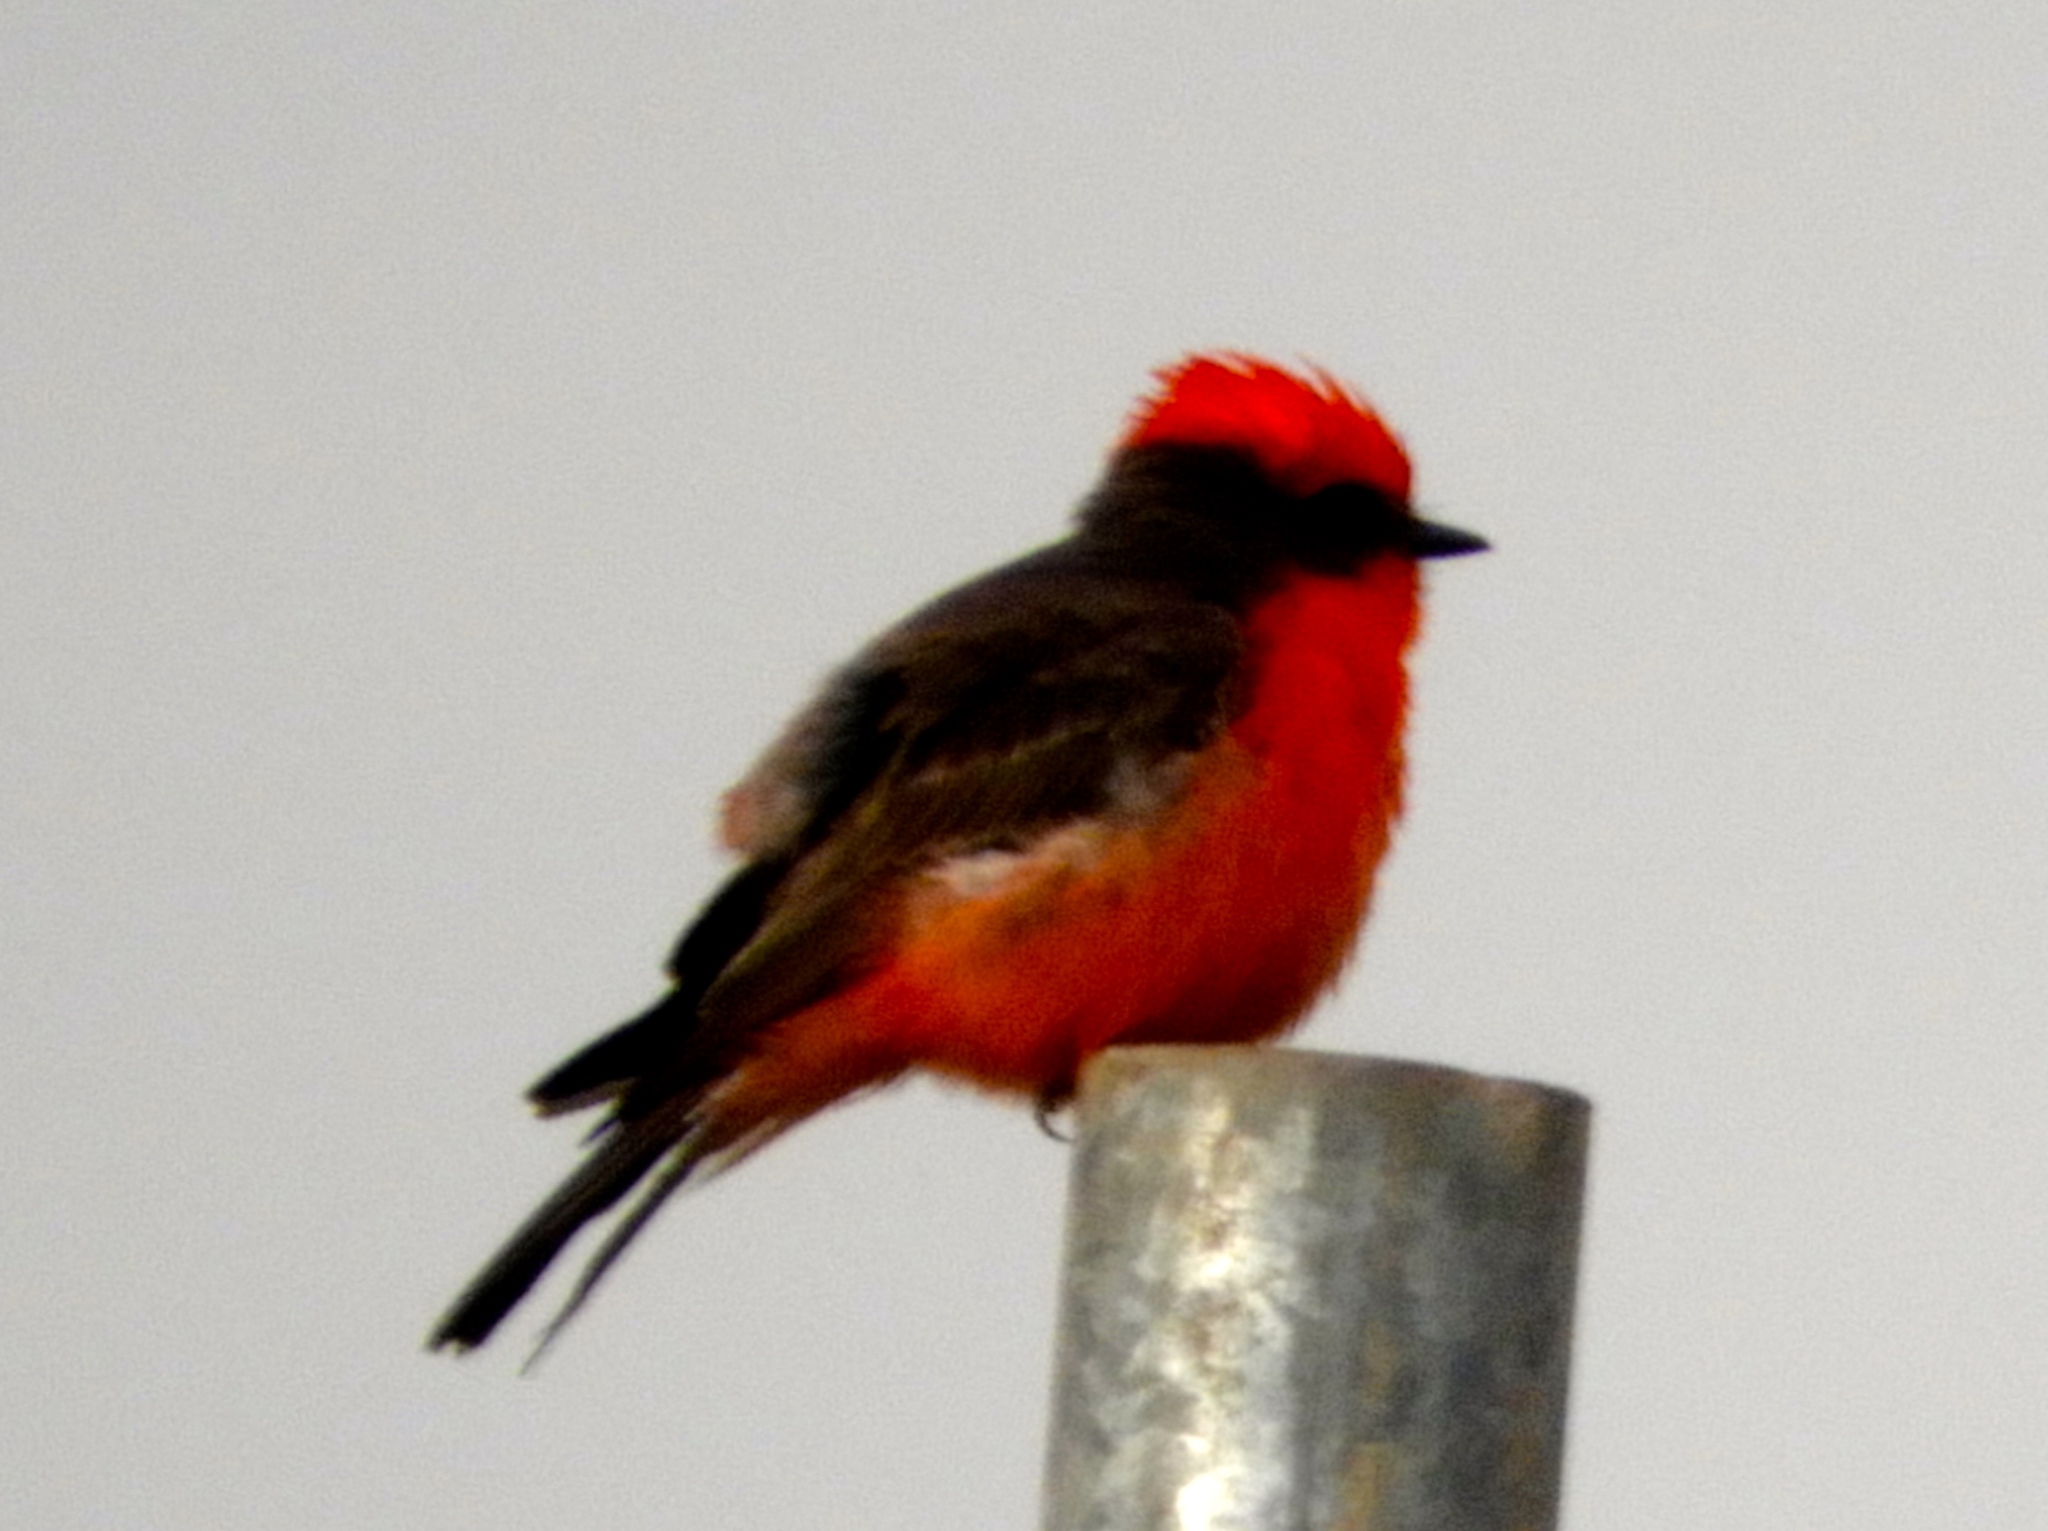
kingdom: Animalia
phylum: Chordata
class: Aves
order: Passeriformes
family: Tyrannidae
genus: Pyrocephalus
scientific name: Pyrocephalus rubinus
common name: Vermilion flycatcher
